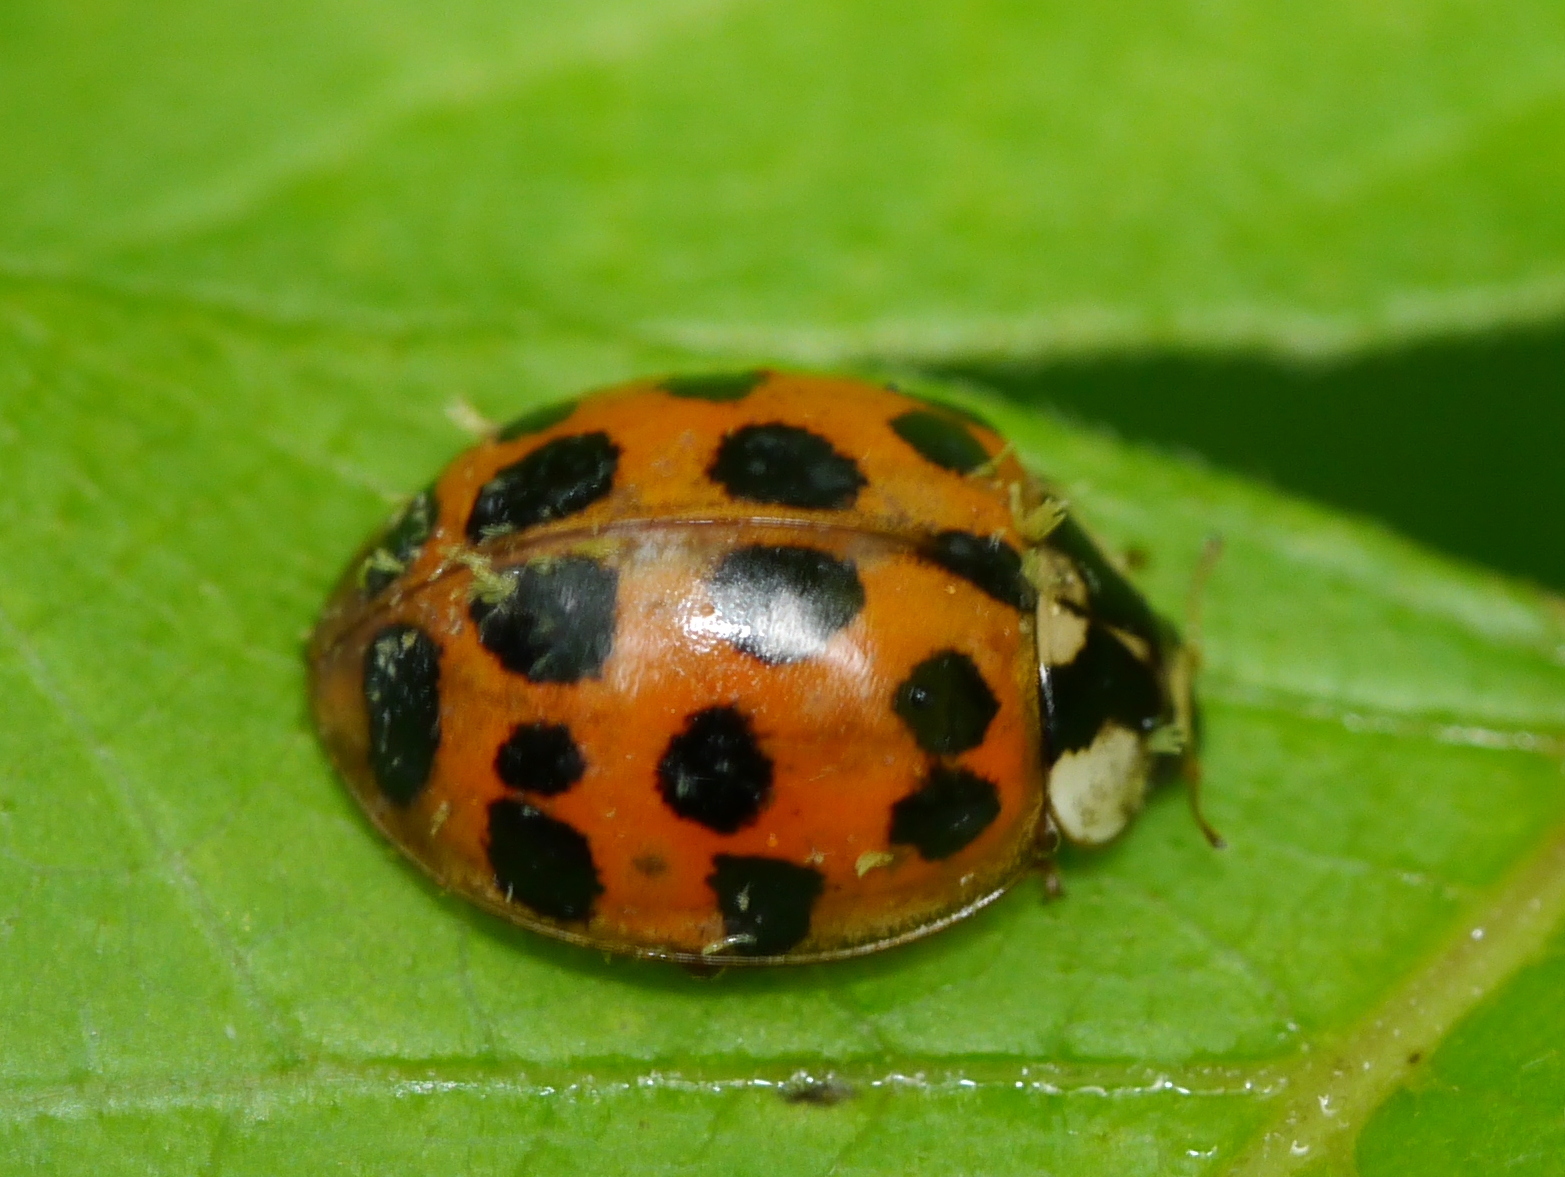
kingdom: Animalia
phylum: Arthropoda
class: Insecta
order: Coleoptera
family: Coccinellidae
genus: Harmonia
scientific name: Harmonia axyridis
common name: Harlequin ladybird
